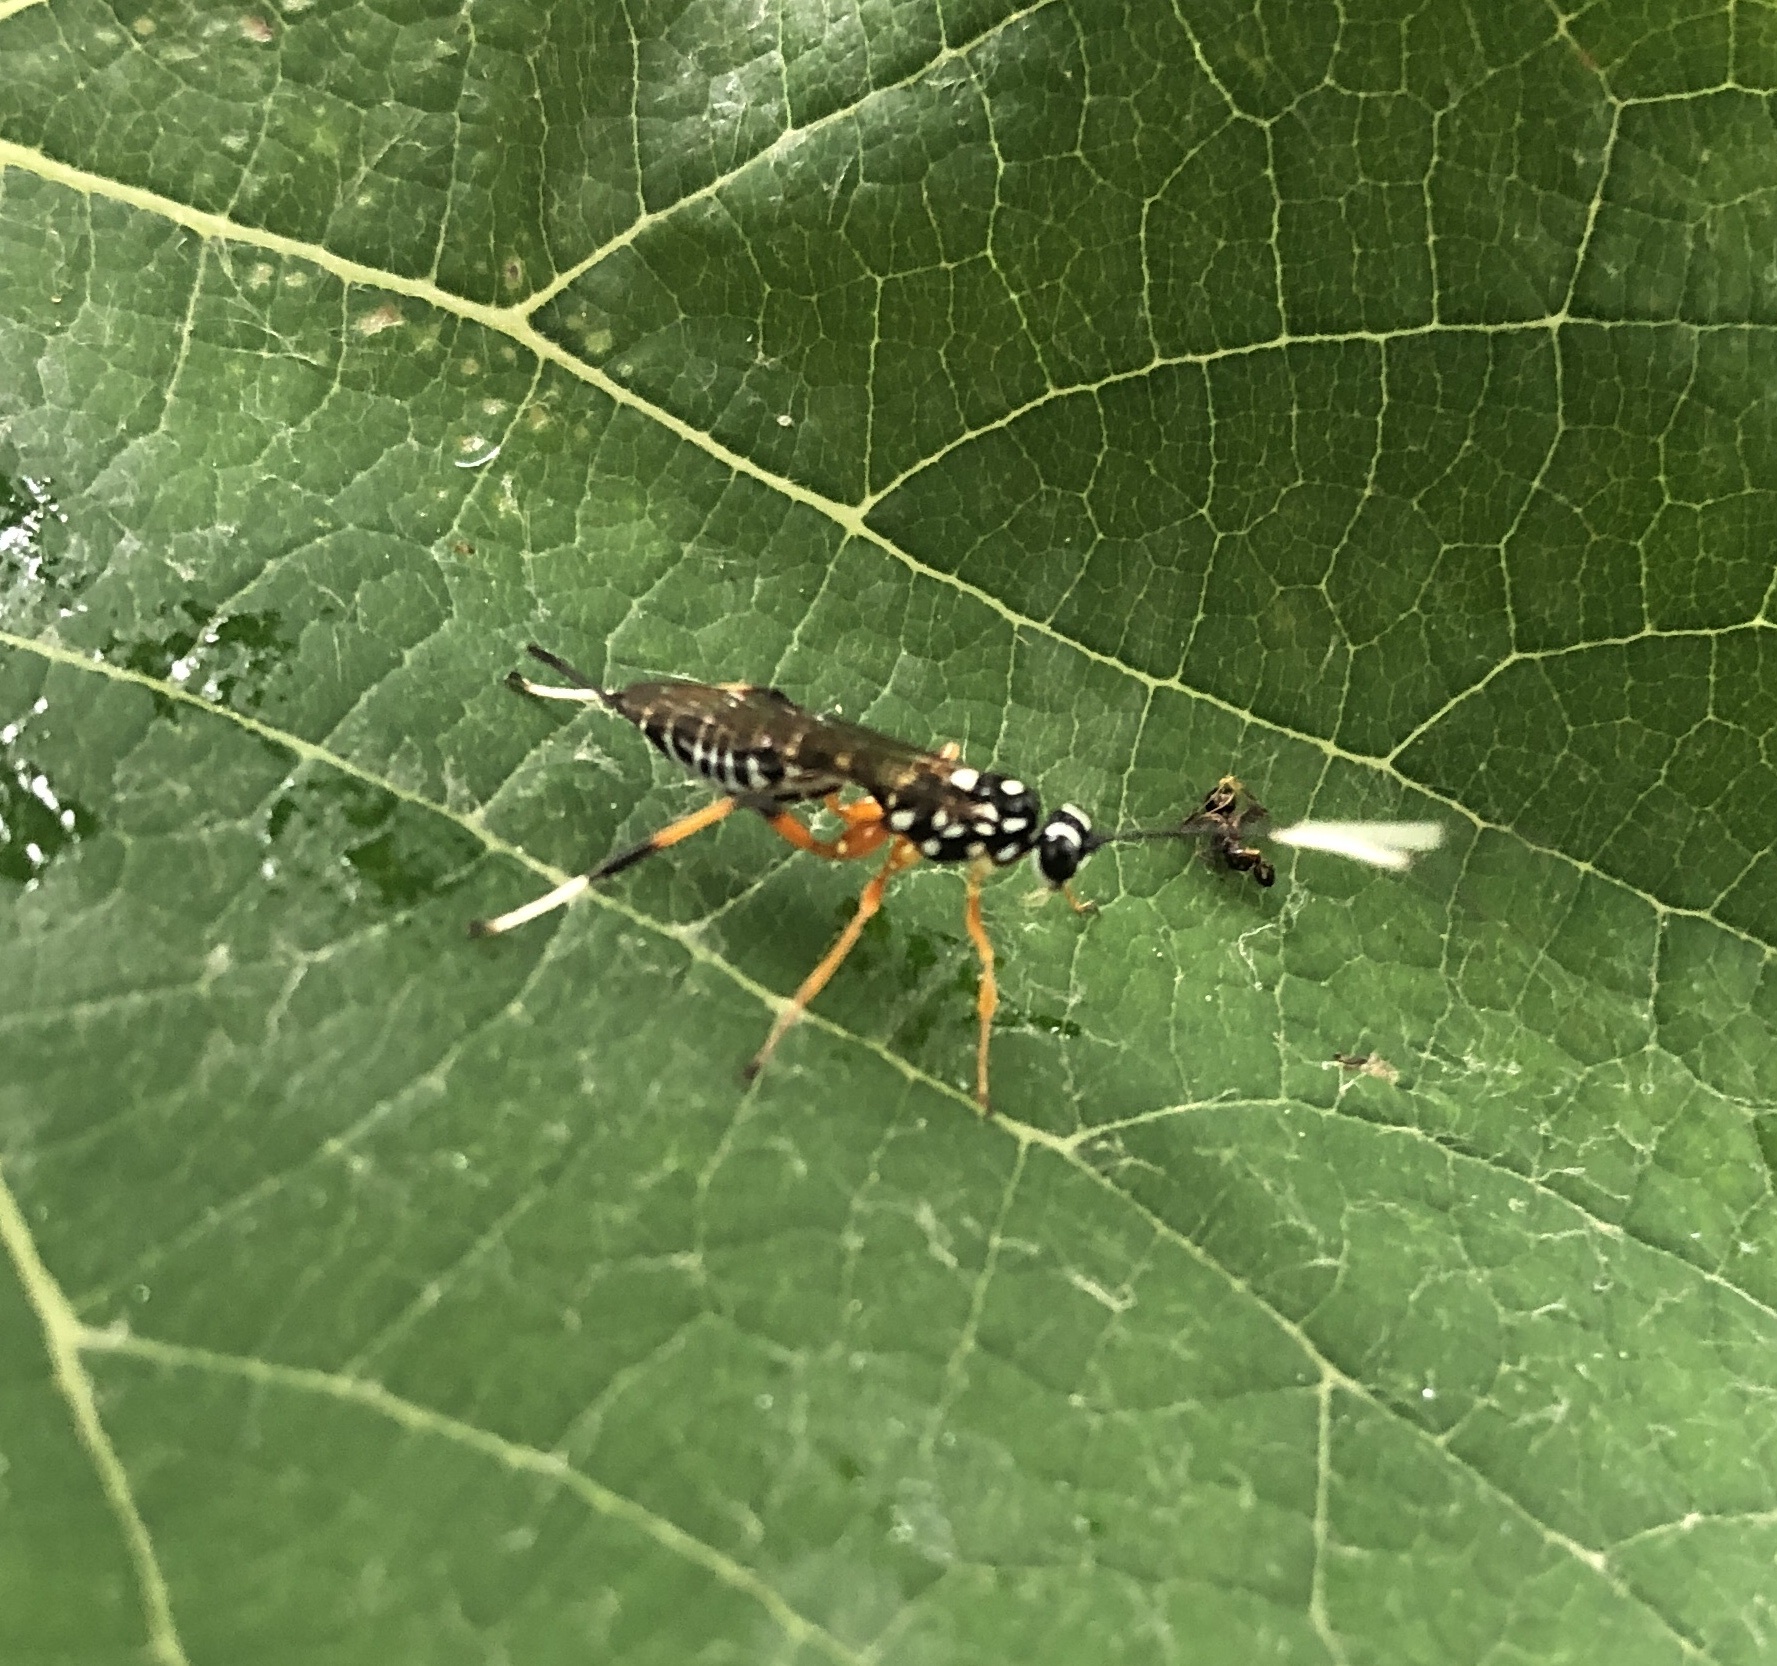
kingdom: Animalia
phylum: Arthropoda
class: Insecta
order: Hymenoptera
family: Ichneumonidae
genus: Xanthocryptus
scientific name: Xanthocryptus novozealandicus
